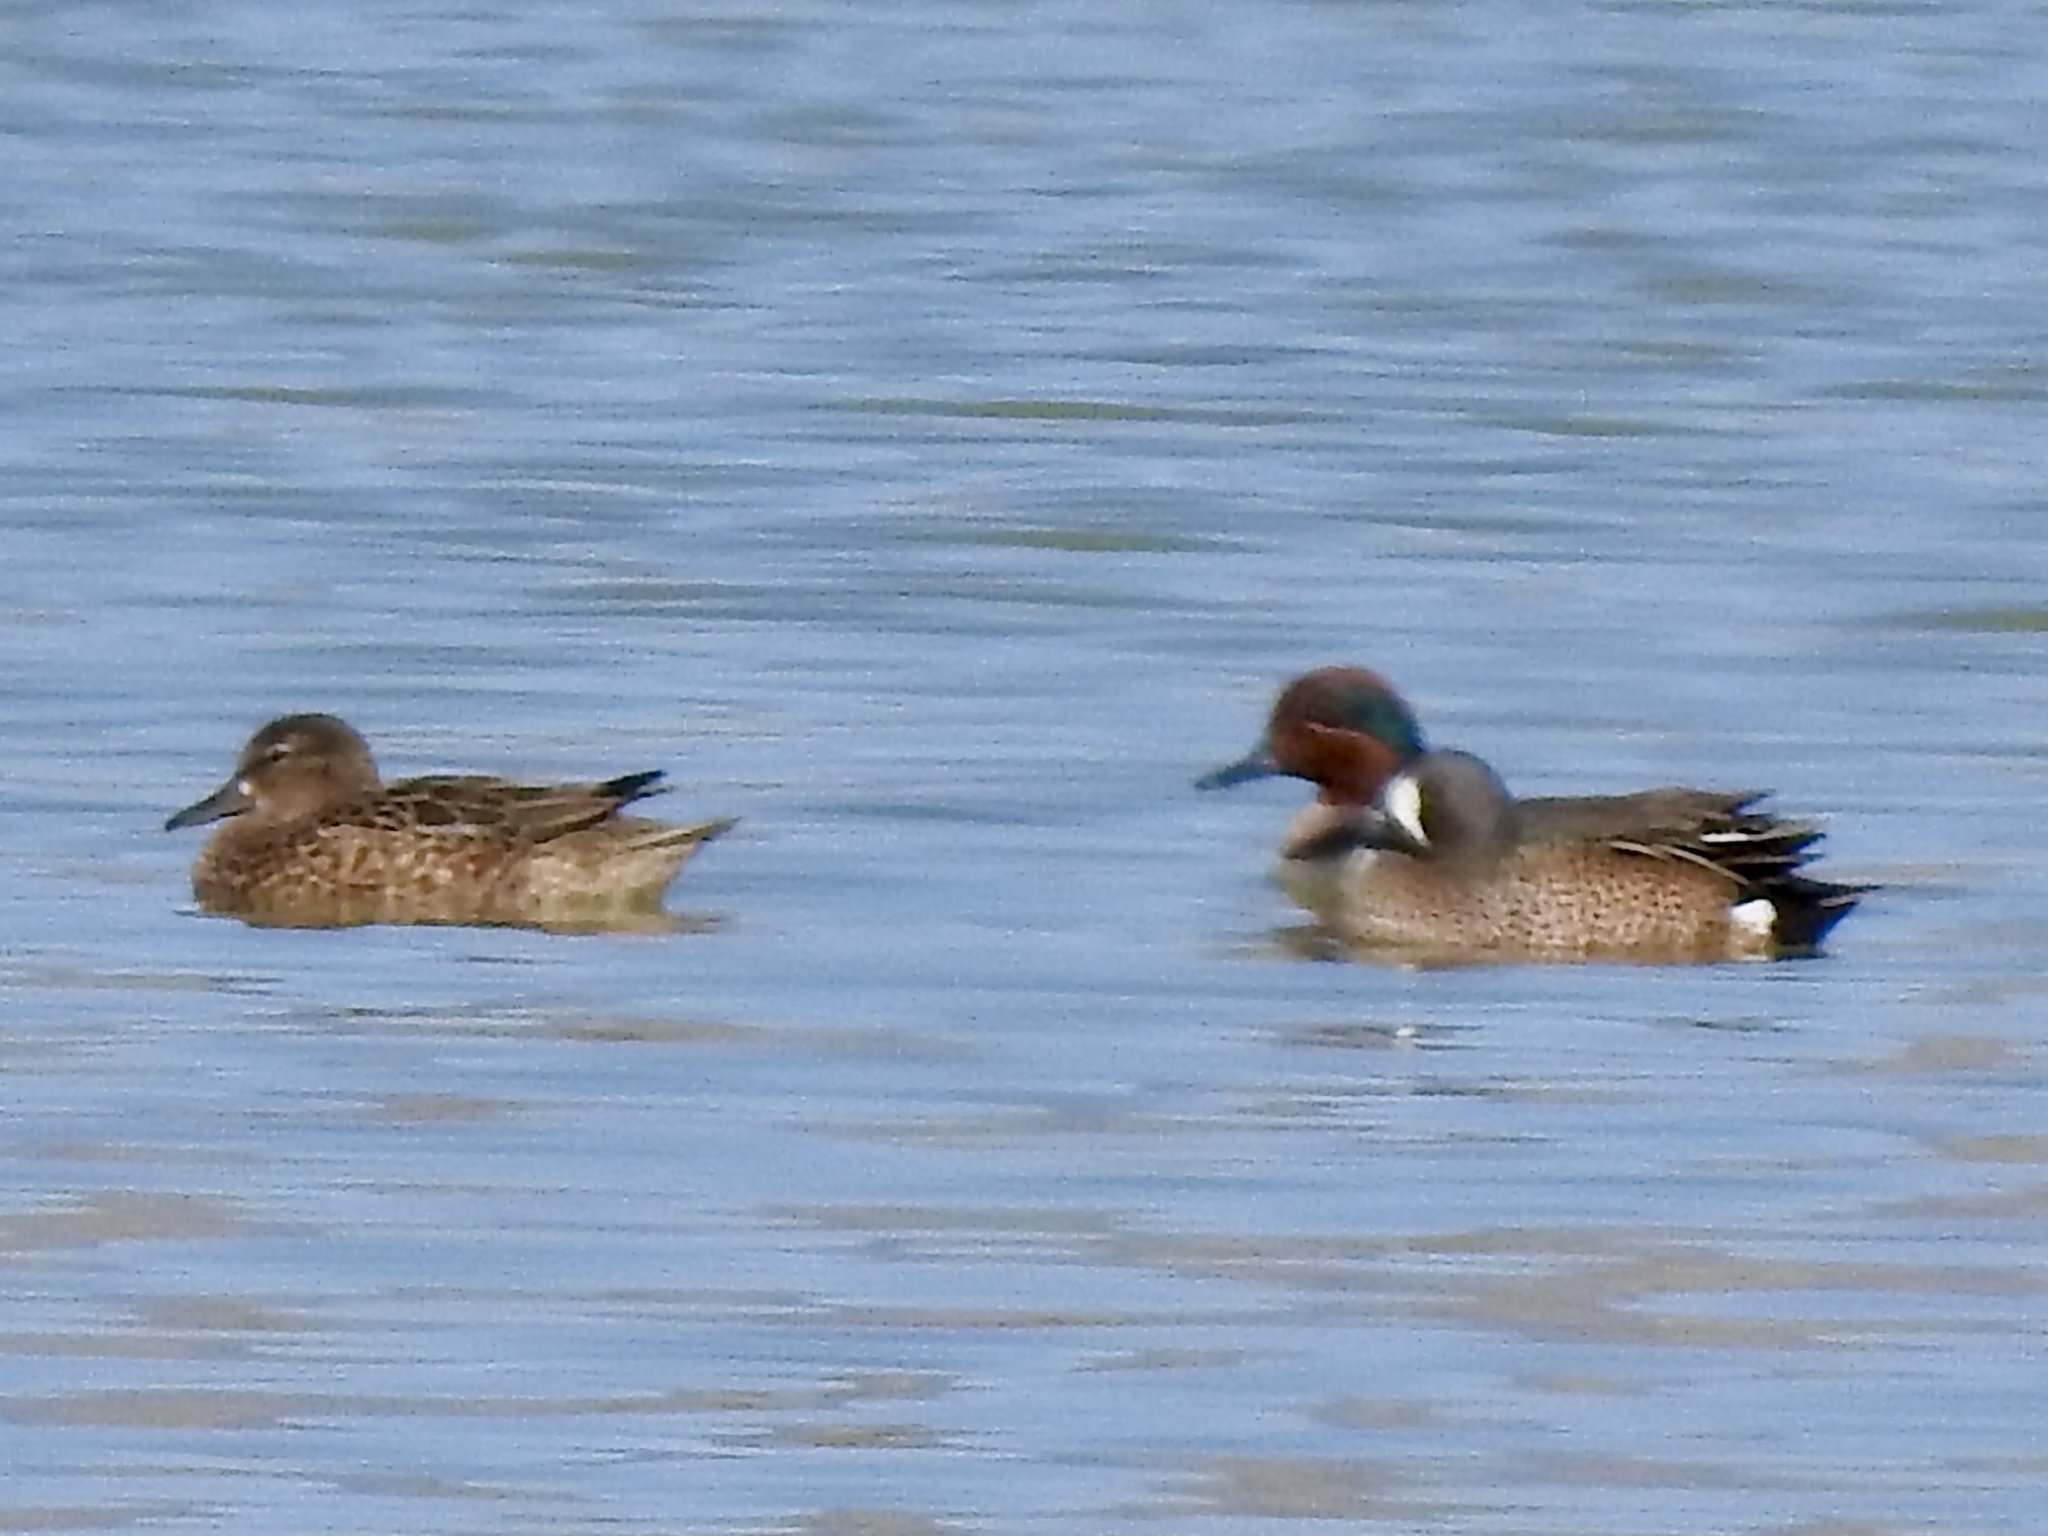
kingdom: Animalia
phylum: Chordata
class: Aves
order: Anseriformes
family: Anatidae
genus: Spatula
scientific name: Spatula discors
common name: Blue-winged teal
